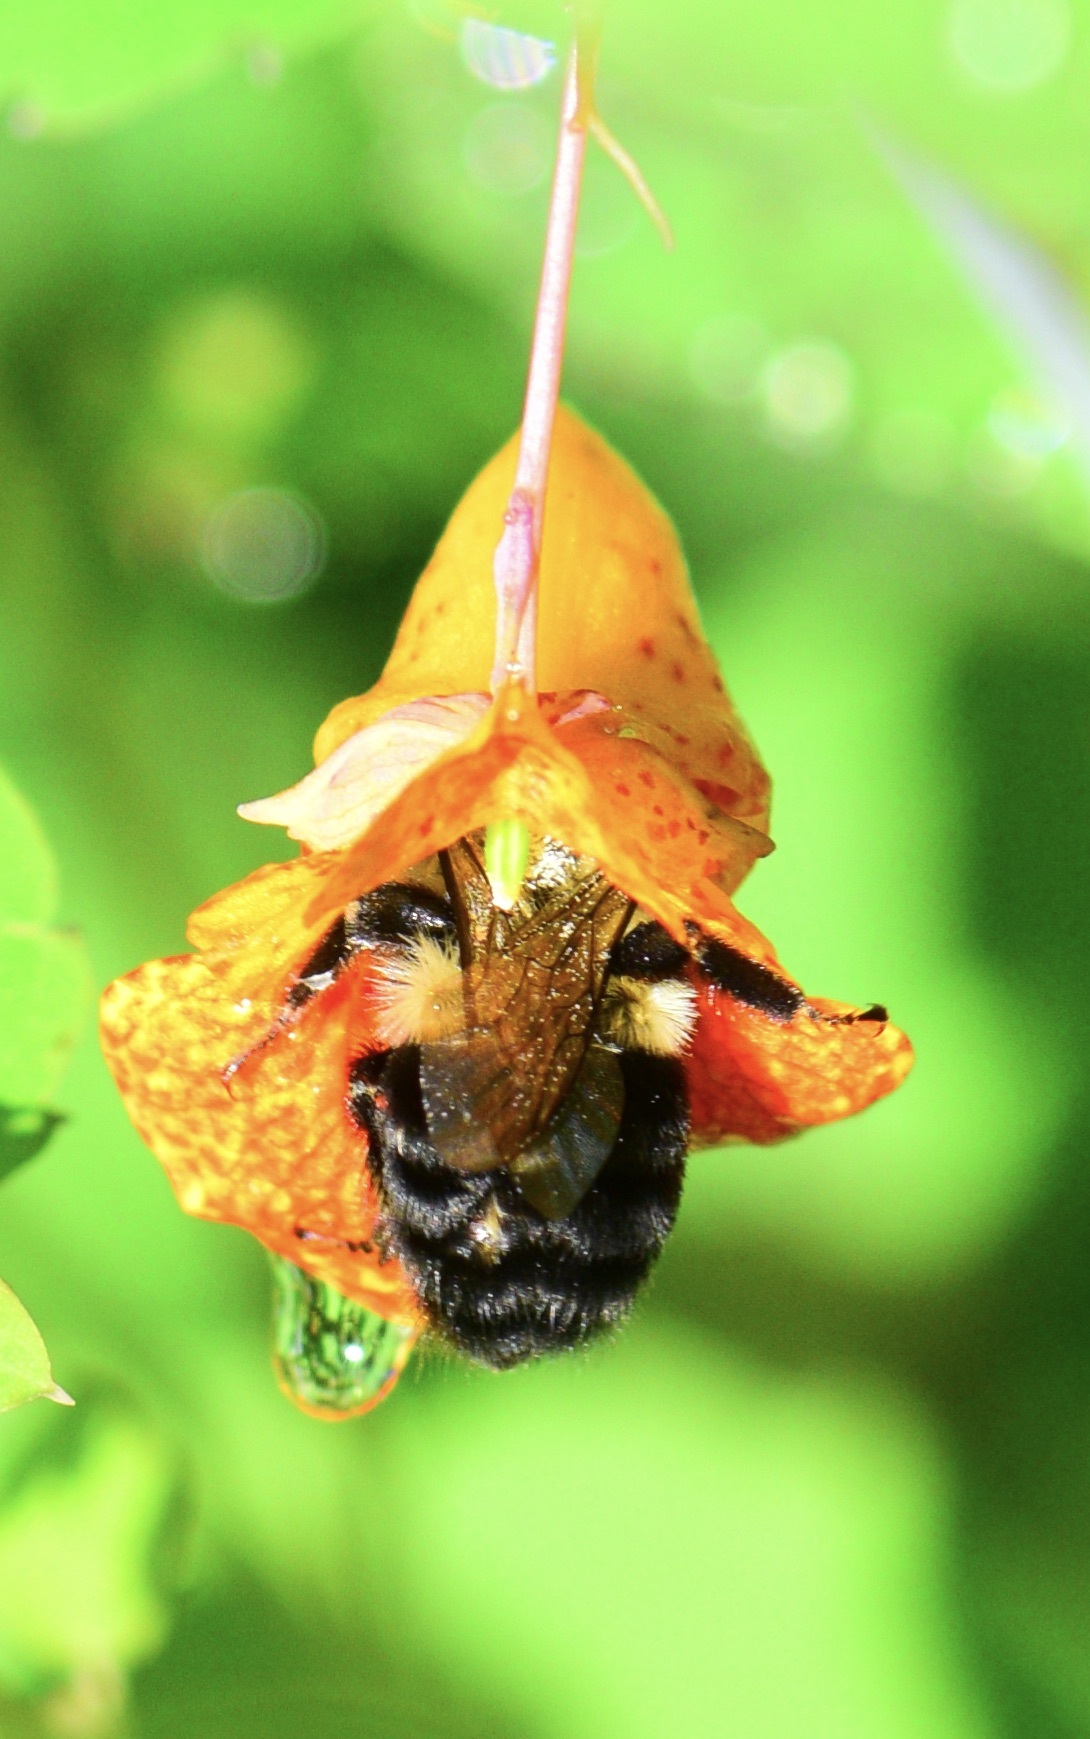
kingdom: Animalia
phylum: Arthropoda
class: Insecta
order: Hymenoptera
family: Apidae
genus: Bombus
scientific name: Bombus impatiens
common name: Common eastern bumble bee
